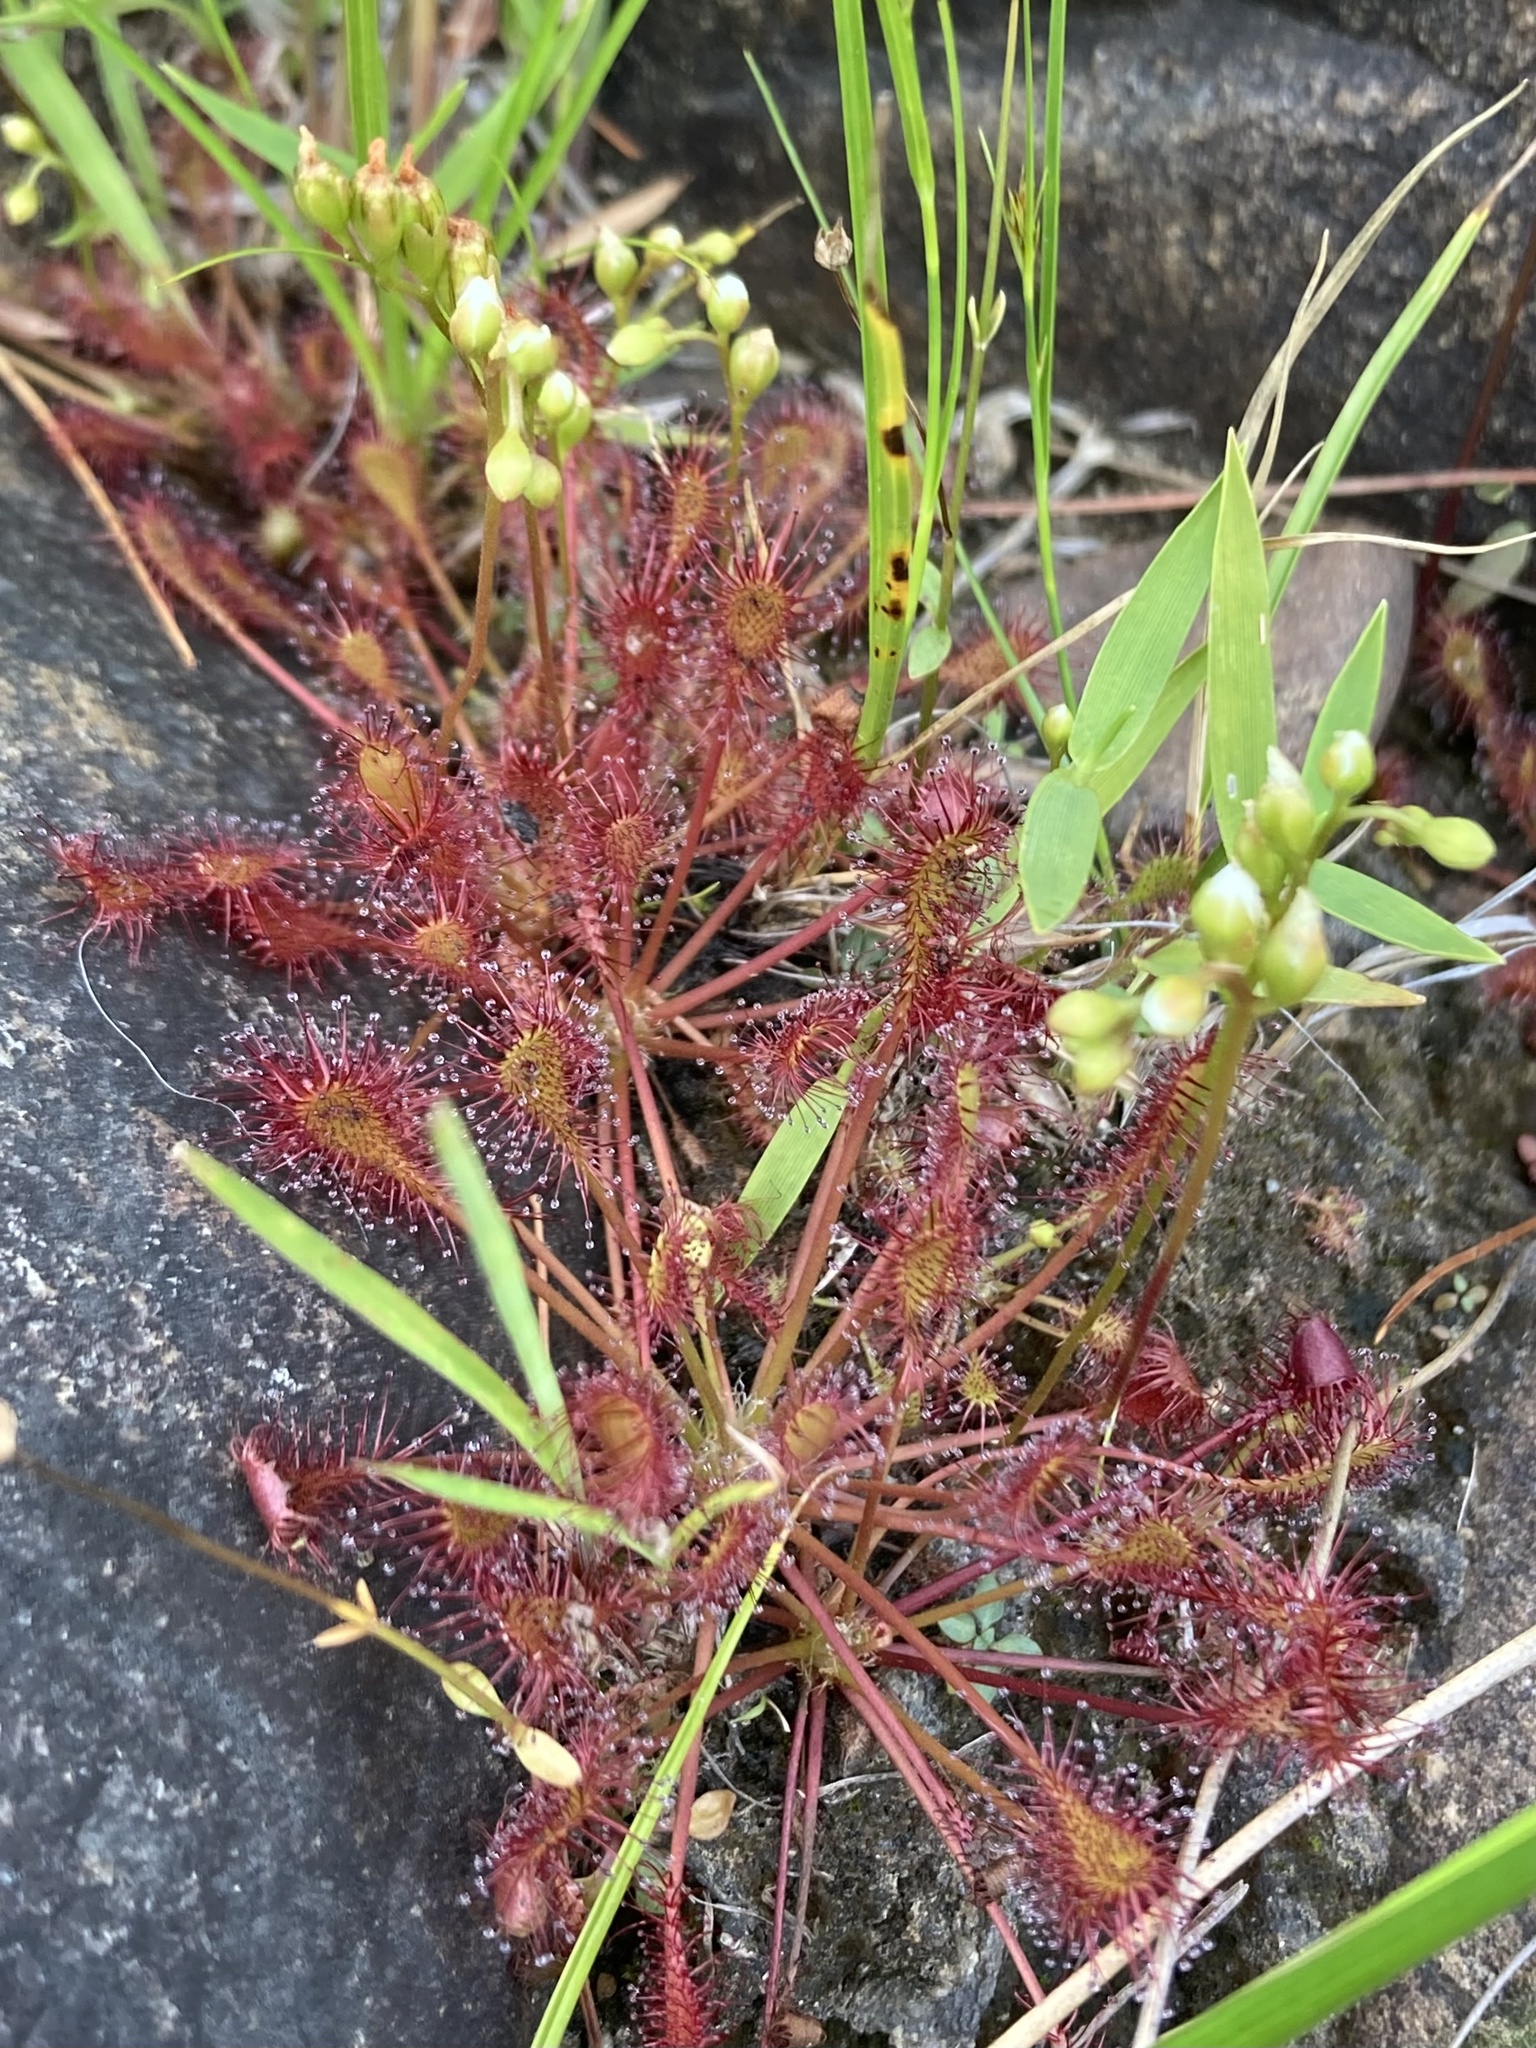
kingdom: Plantae
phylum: Tracheophyta
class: Magnoliopsida
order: Caryophyllales
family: Droseraceae
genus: Drosera
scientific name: Drosera intermedia
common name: Oblong-leaved sundew
